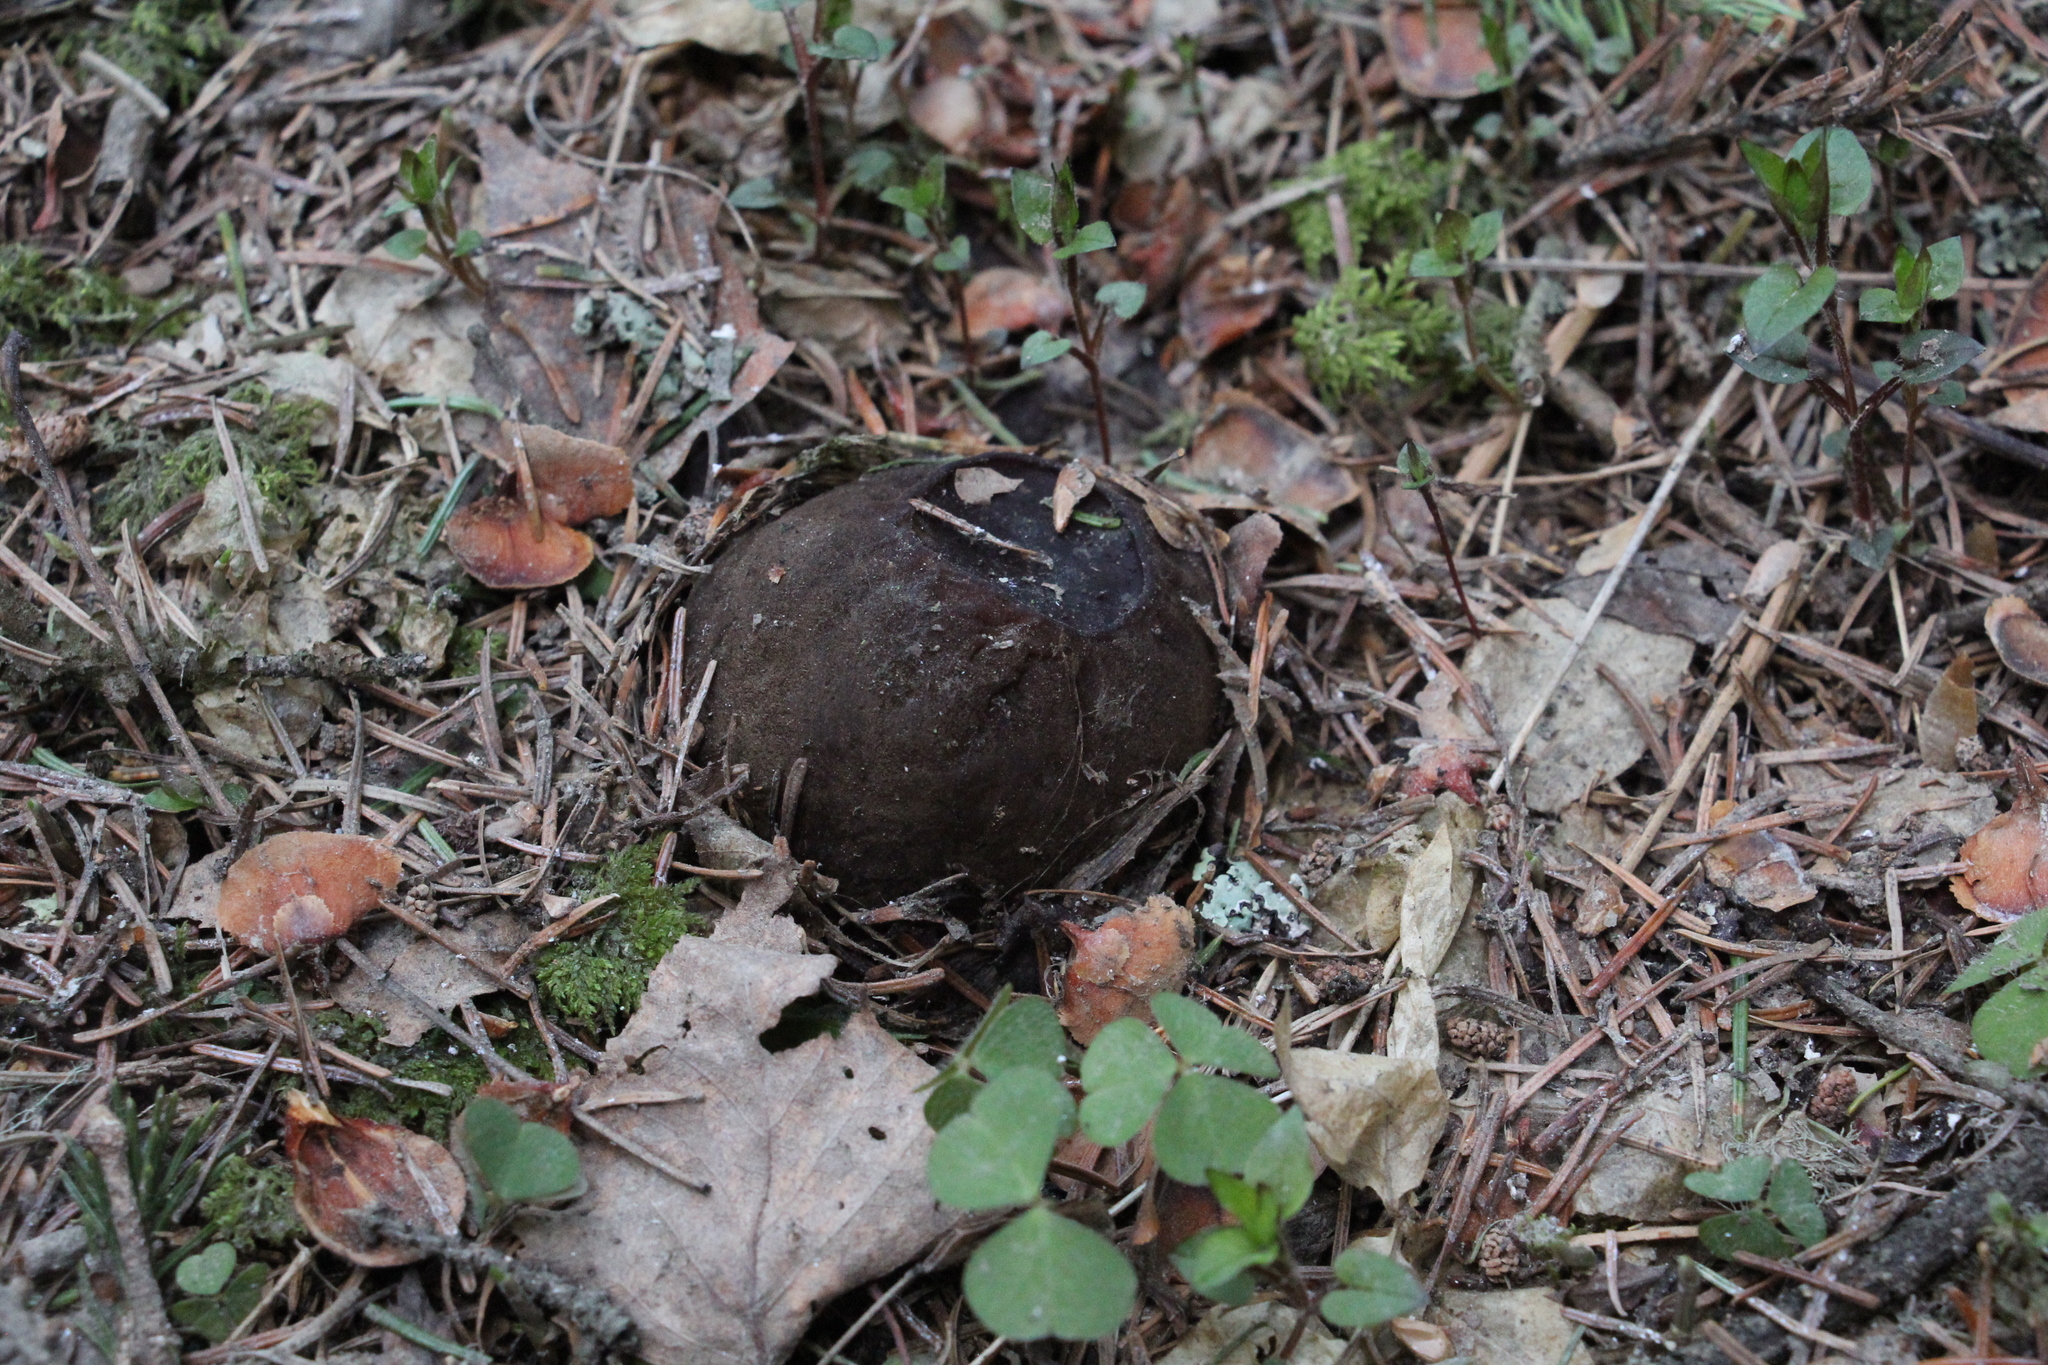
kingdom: Fungi
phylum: Ascomycota
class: Pezizomycetes
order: Pezizales
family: Sarcosomataceae
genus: Sarcosoma
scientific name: Sarcosoma globosum
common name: Charred-pancake cup
